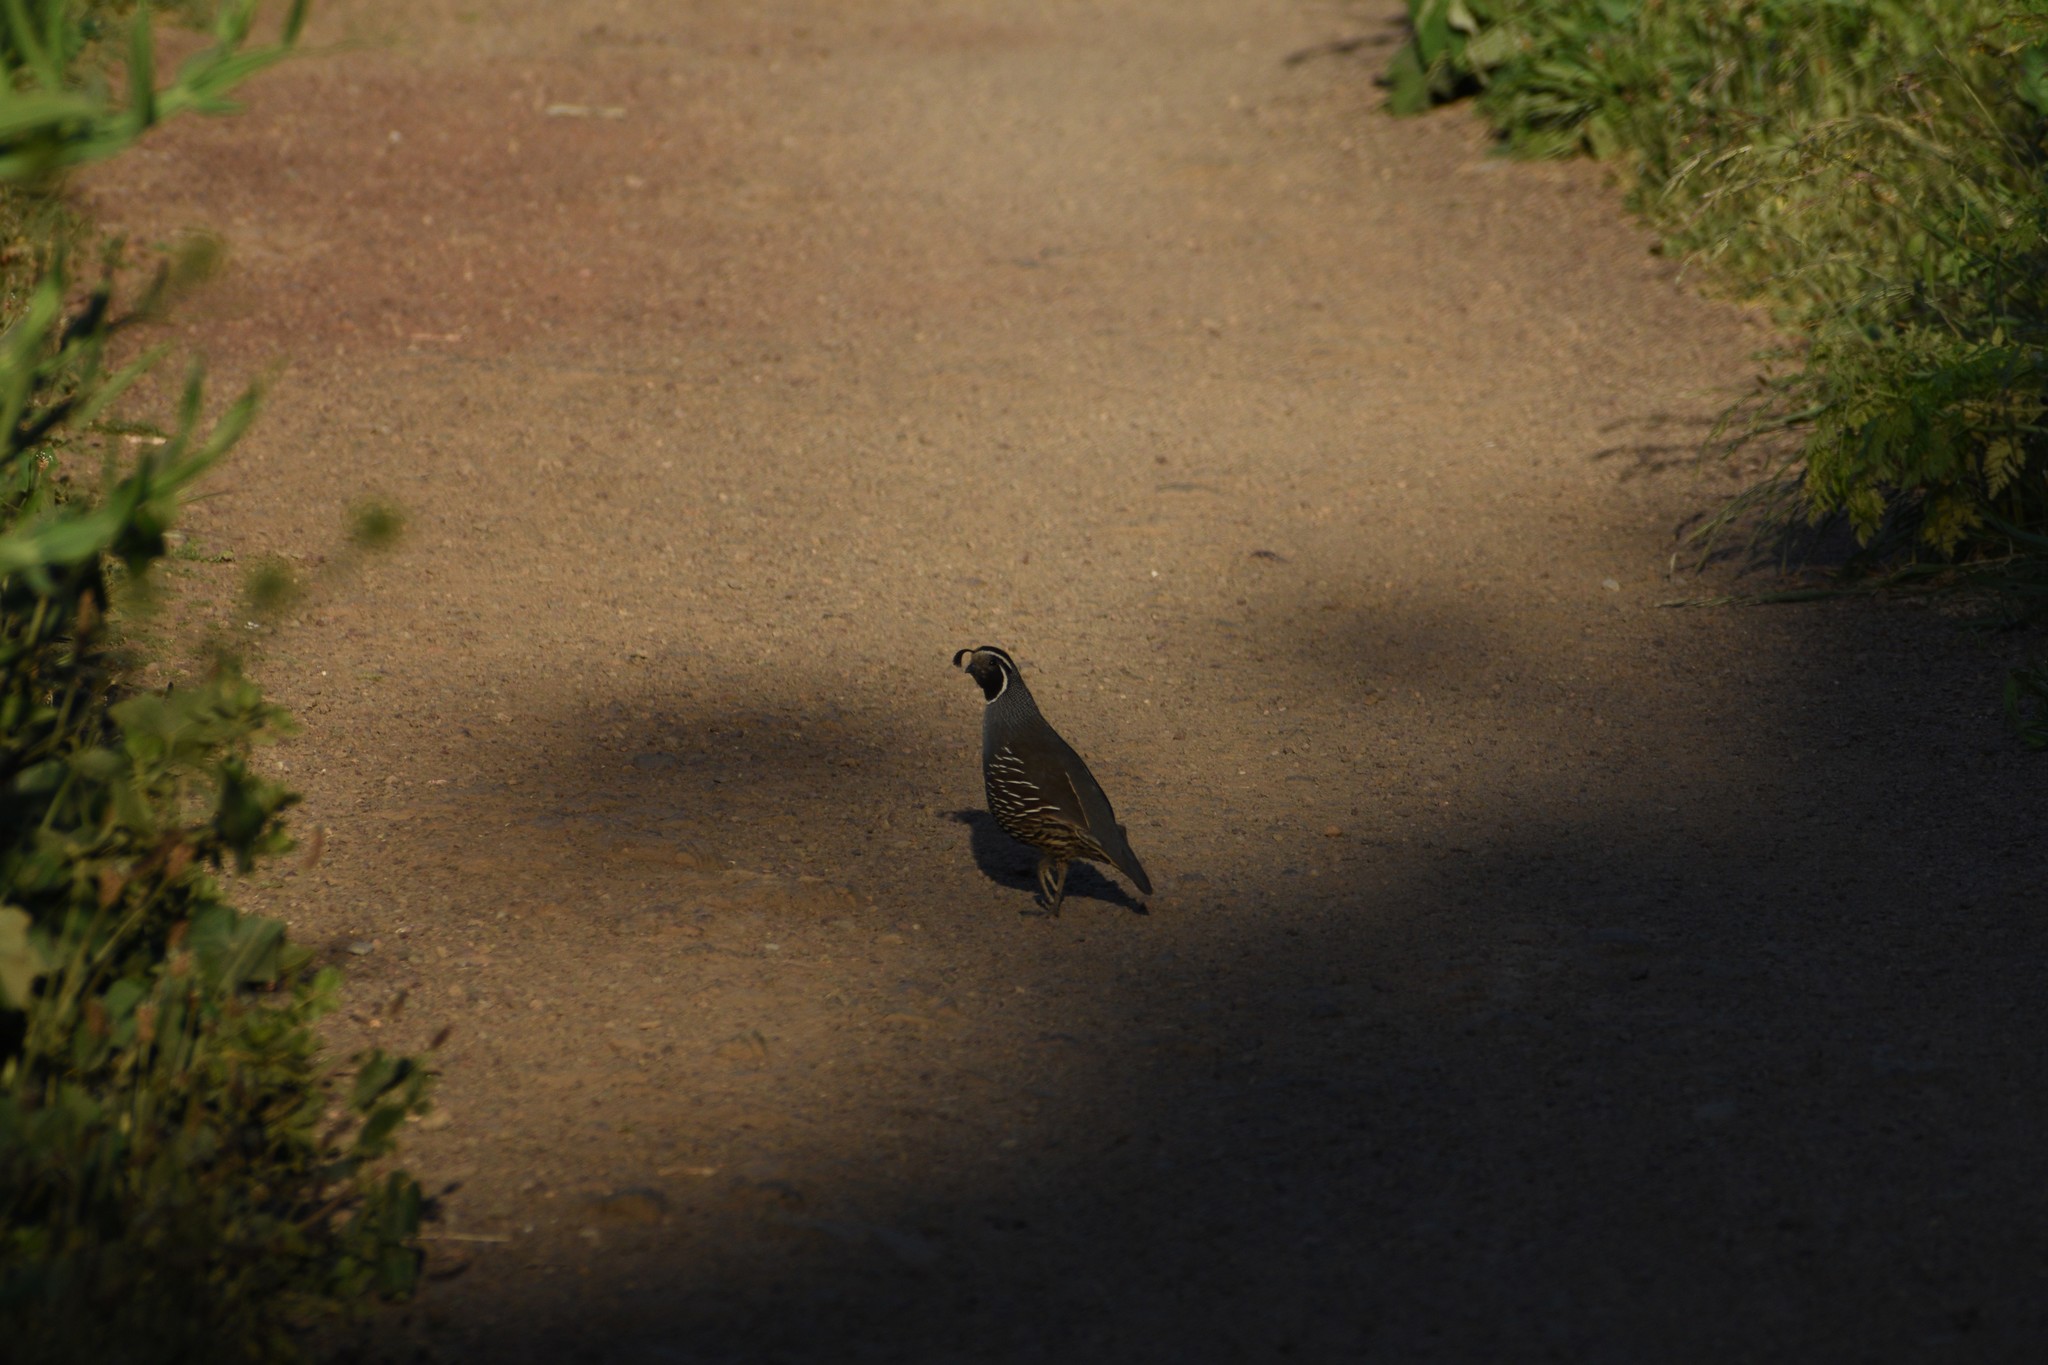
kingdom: Animalia
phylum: Chordata
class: Aves
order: Galliformes
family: Odontophoridae
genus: Callipepla
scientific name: Callipepla californica
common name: California quail
